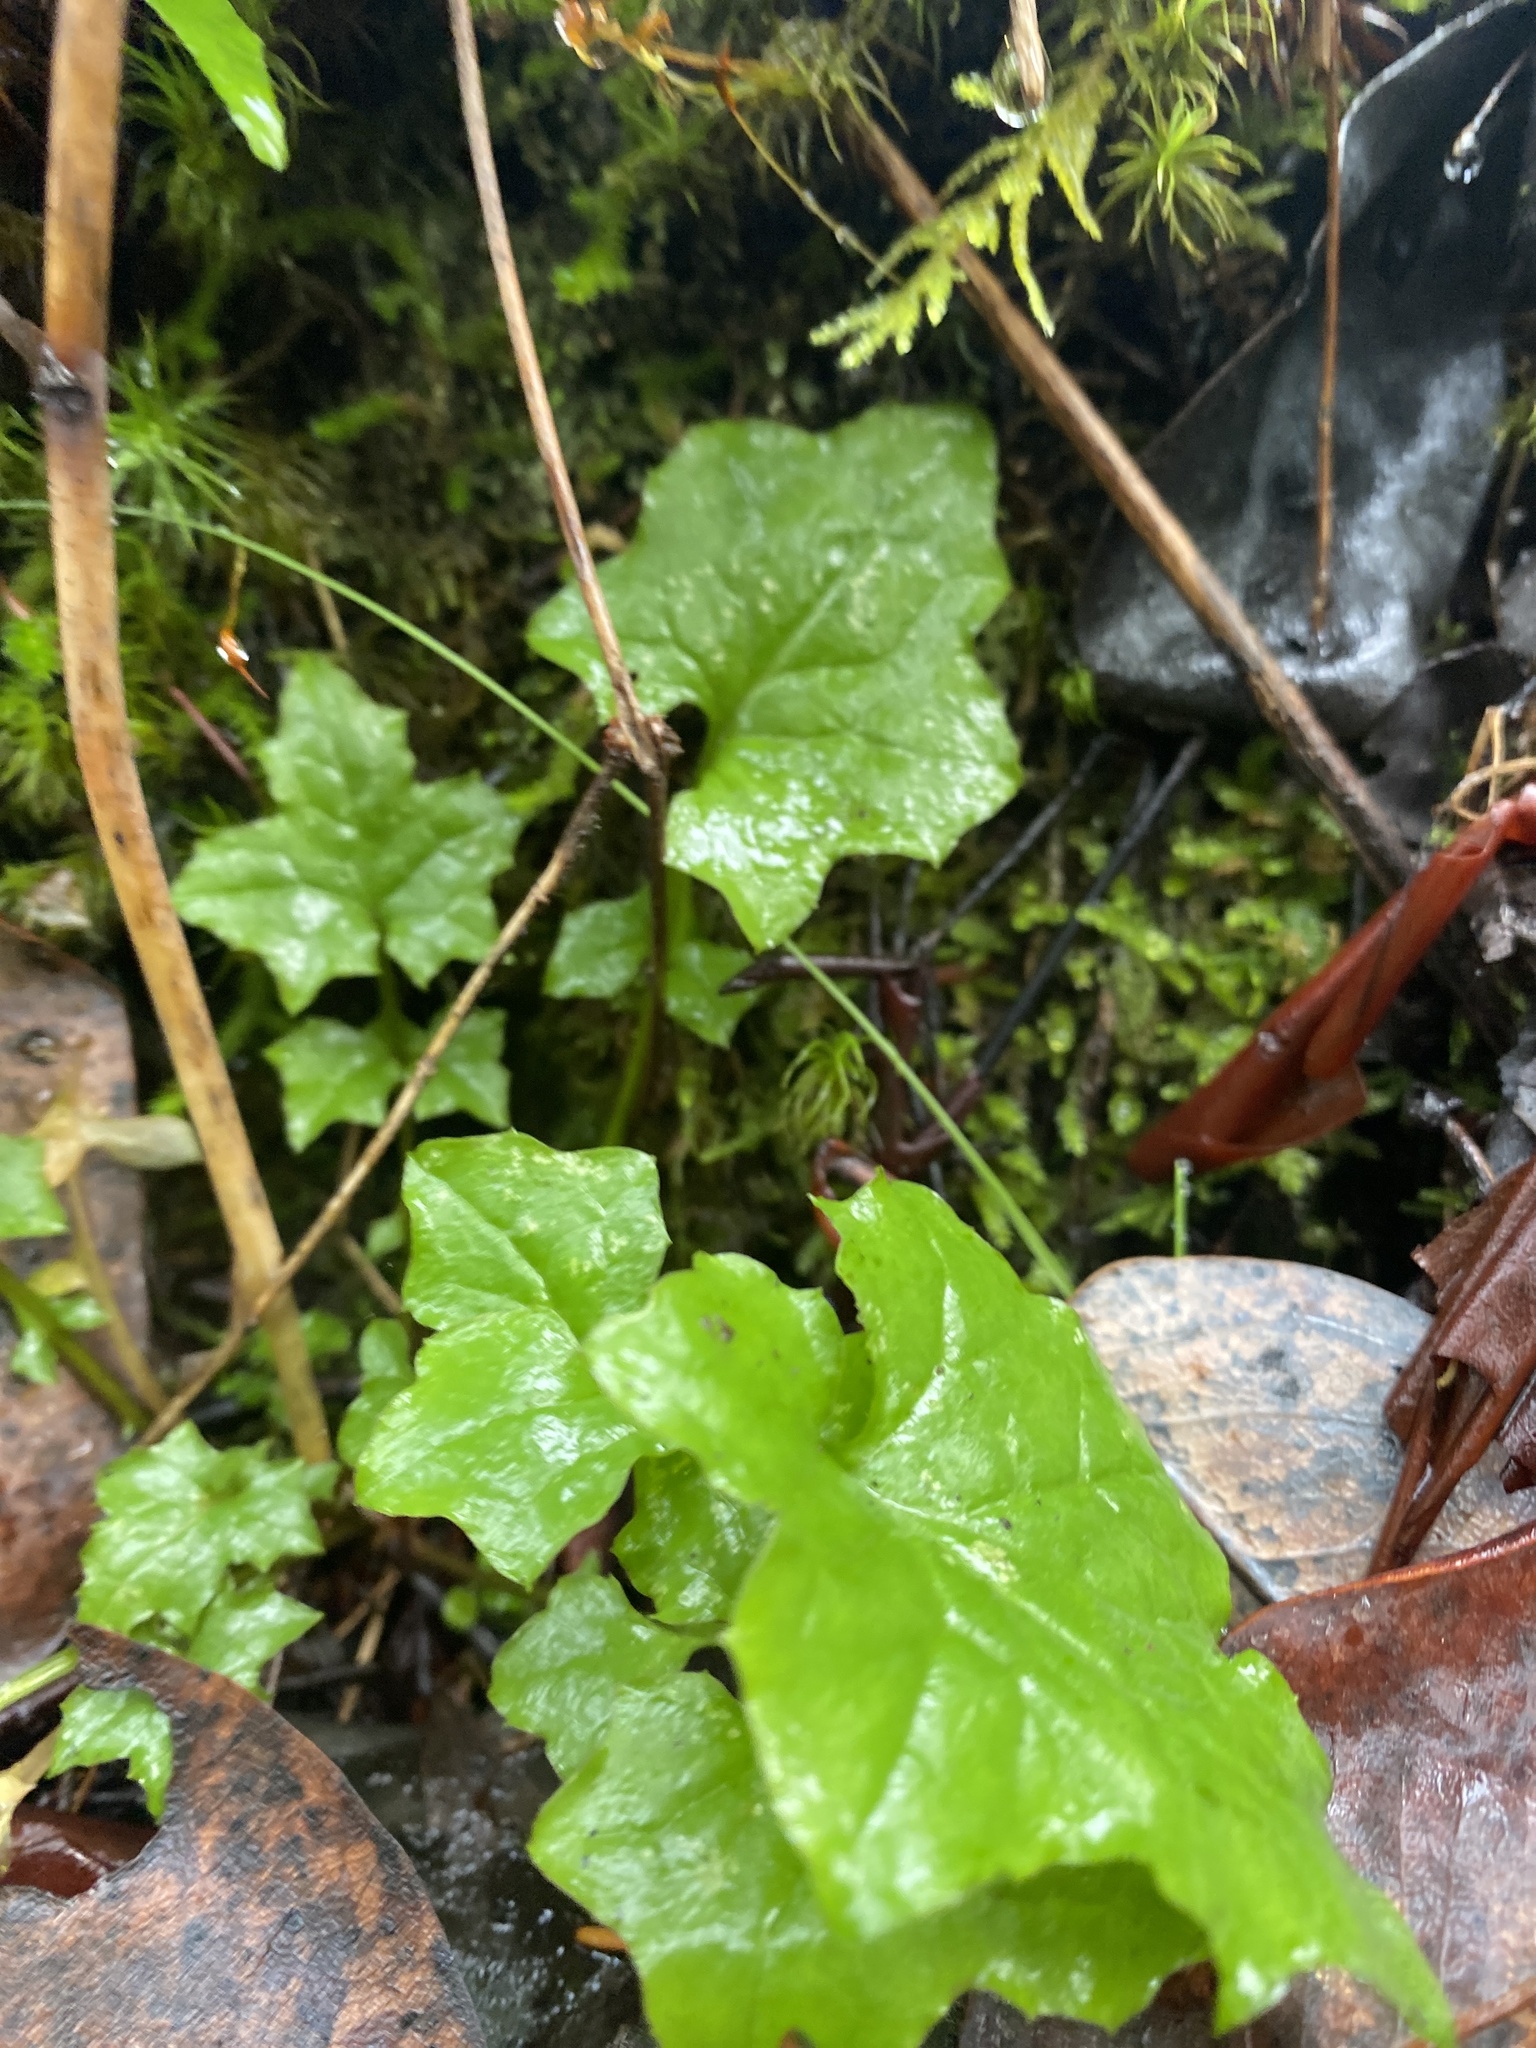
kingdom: Plantae
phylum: Tracheophyta
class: Magnoliopsida
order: Asterales
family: Asteraceae
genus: Mycelis
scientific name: Mycelis muralis
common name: Wall lettuce
